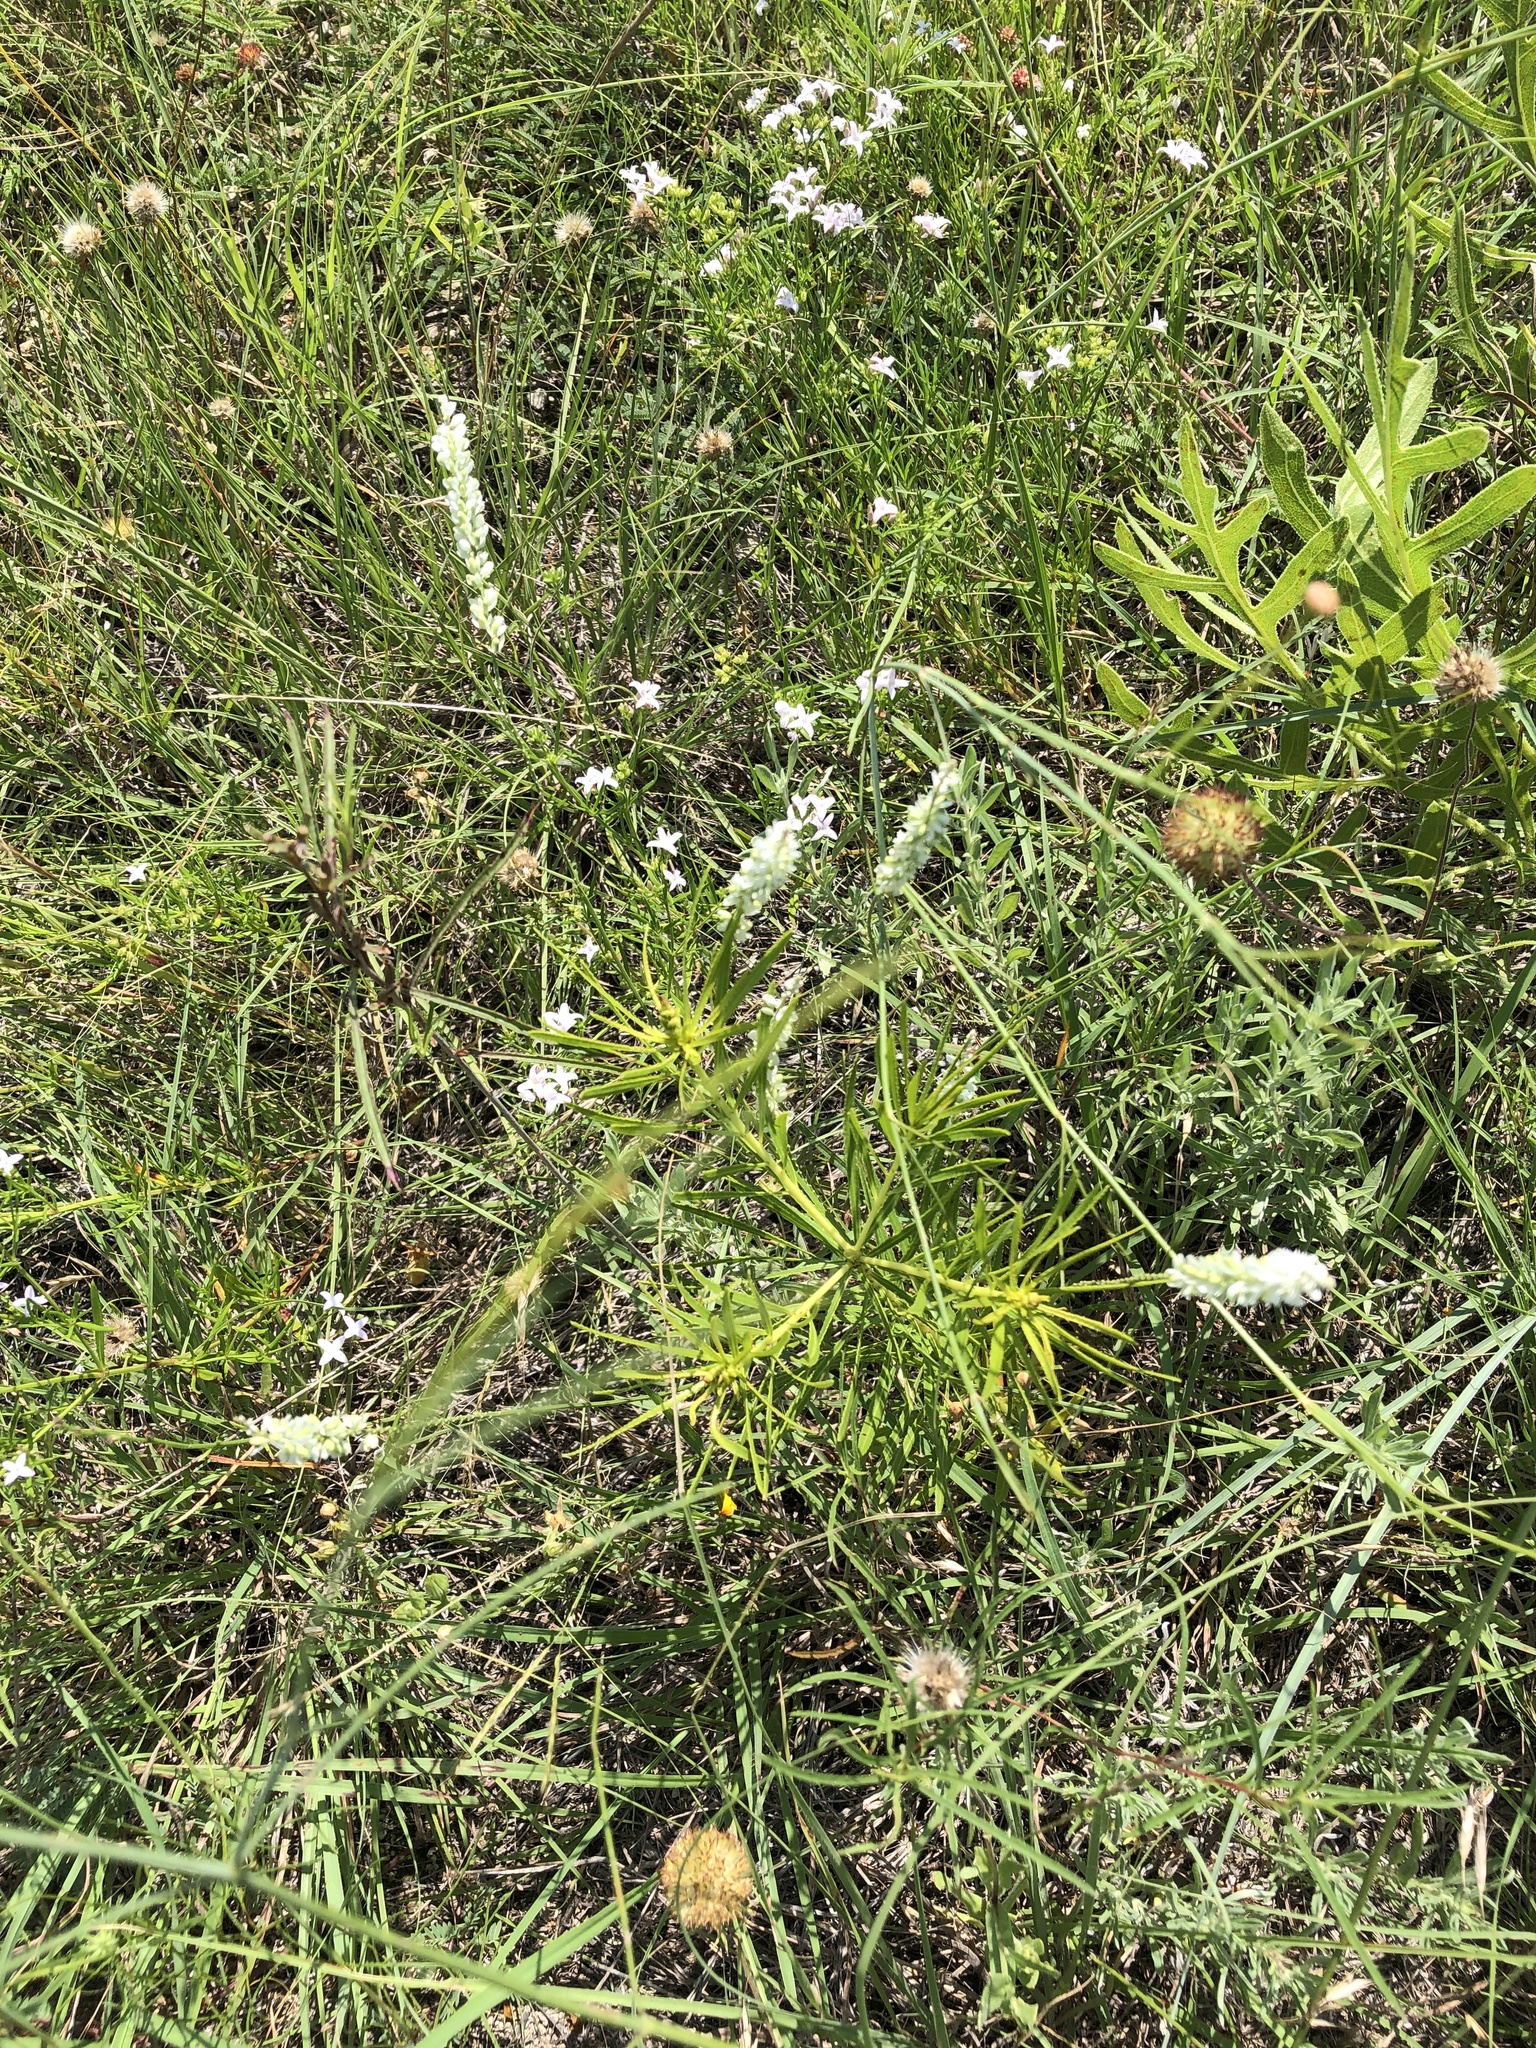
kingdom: Plantae
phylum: Tracheophyta
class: Magnoliopsida
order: Fabales
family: Polygalaceae
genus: Polygala
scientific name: Polygala alba
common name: White milkwort
